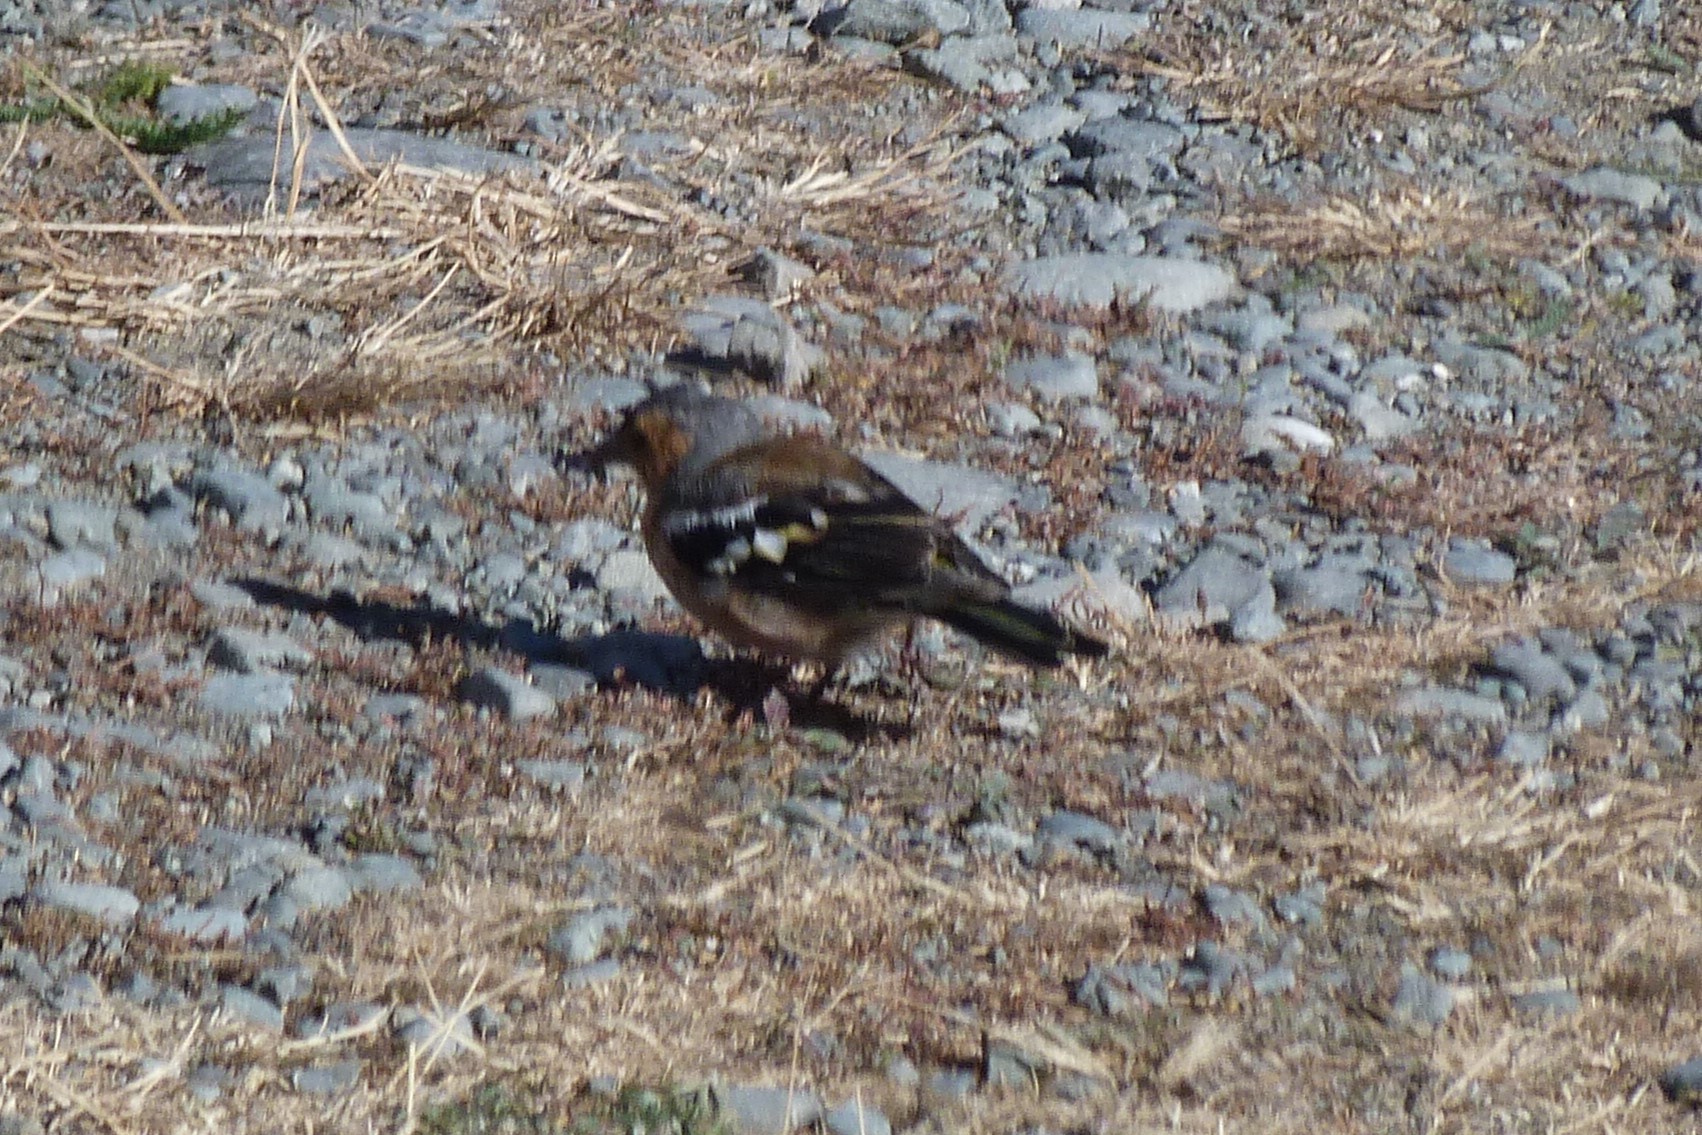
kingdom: Animalia
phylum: Chordata
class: Aves
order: Passeriformes
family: Fringillidae
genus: Fringilla
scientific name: Fringilla coelebs
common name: Common chaffinch
